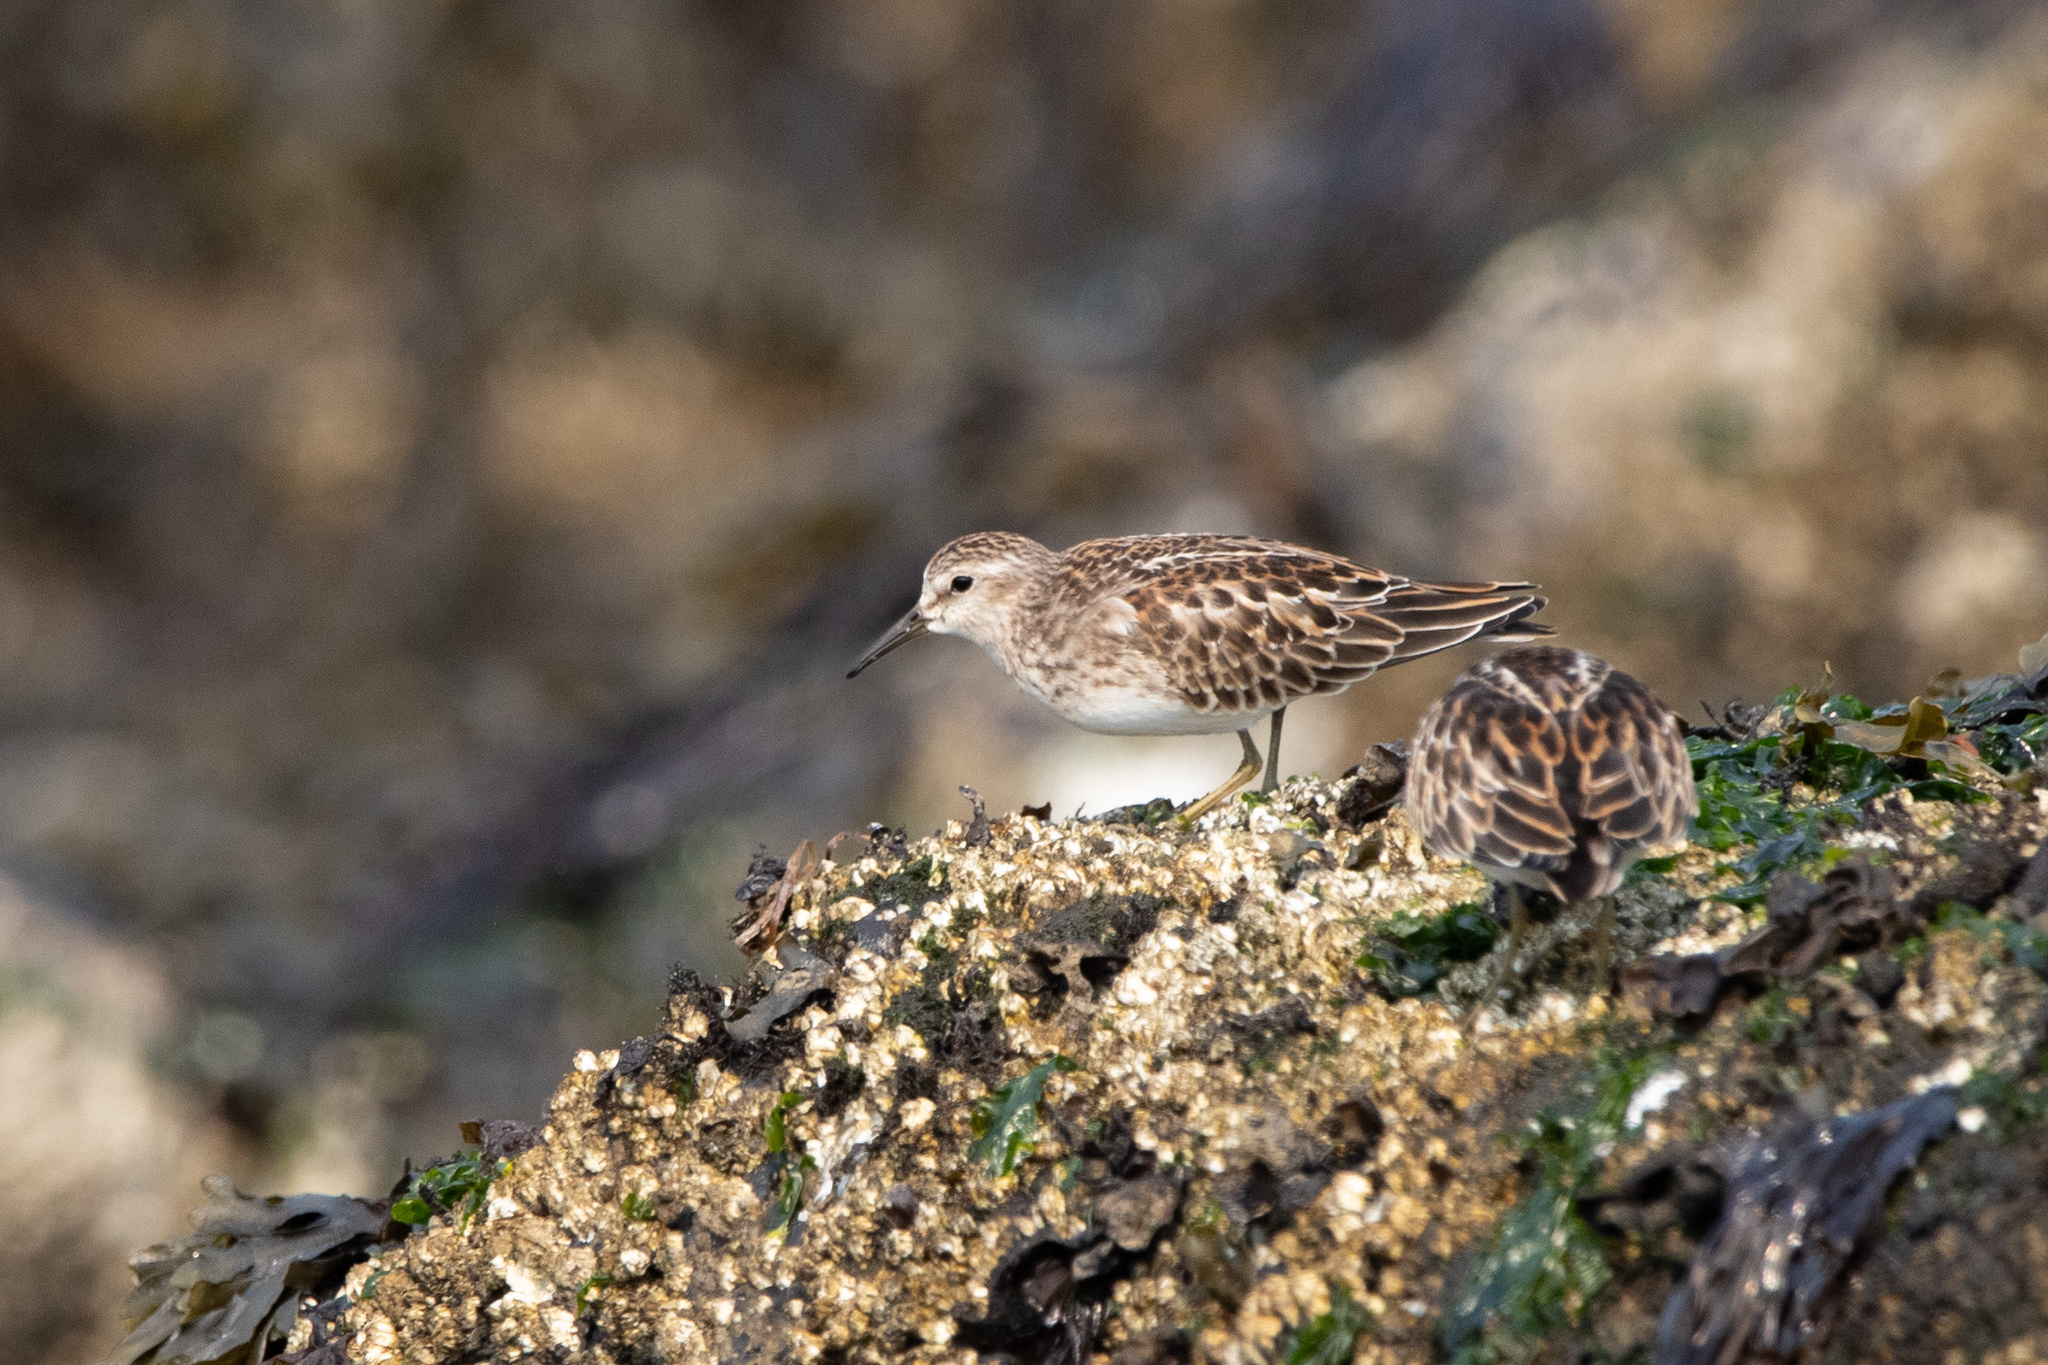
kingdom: Animalia
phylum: Chordata
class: Aves
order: Charadriiformes
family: Scolopacidae
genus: Calidris
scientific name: Calidris minutilla
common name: Least sandpiper
